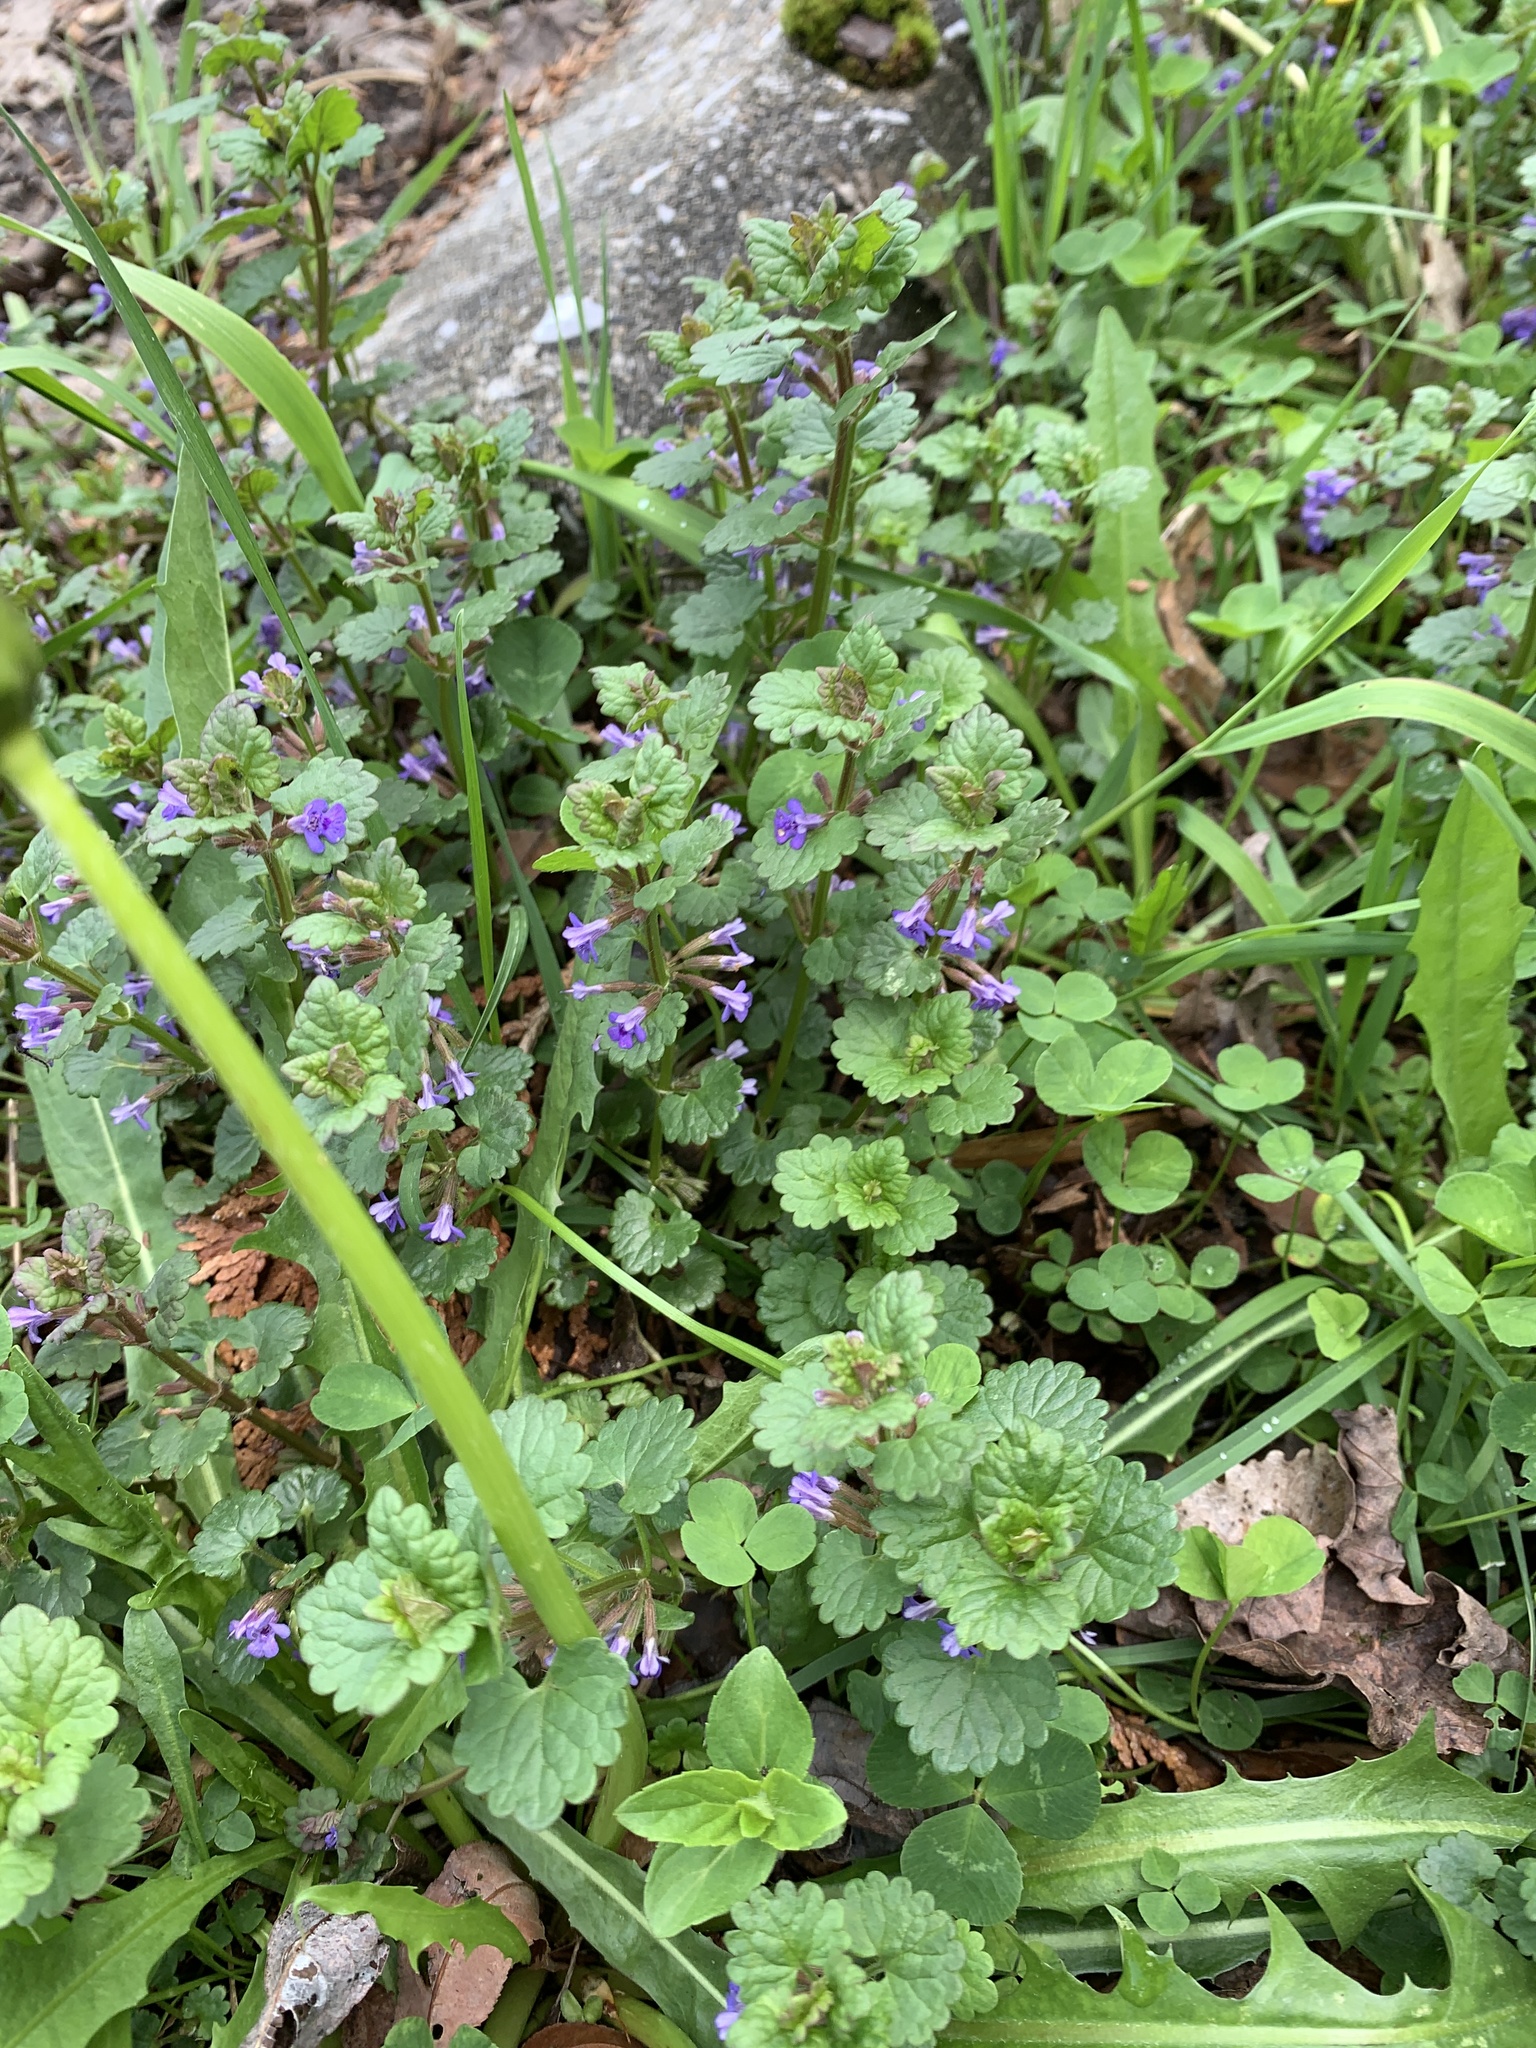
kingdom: Plantae
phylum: Tracheophyta
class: Magnoliopsida
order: Lamiales
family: Lamiaceae
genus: Glechoma
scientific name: Glechoma hederacea
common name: Ground ivy
